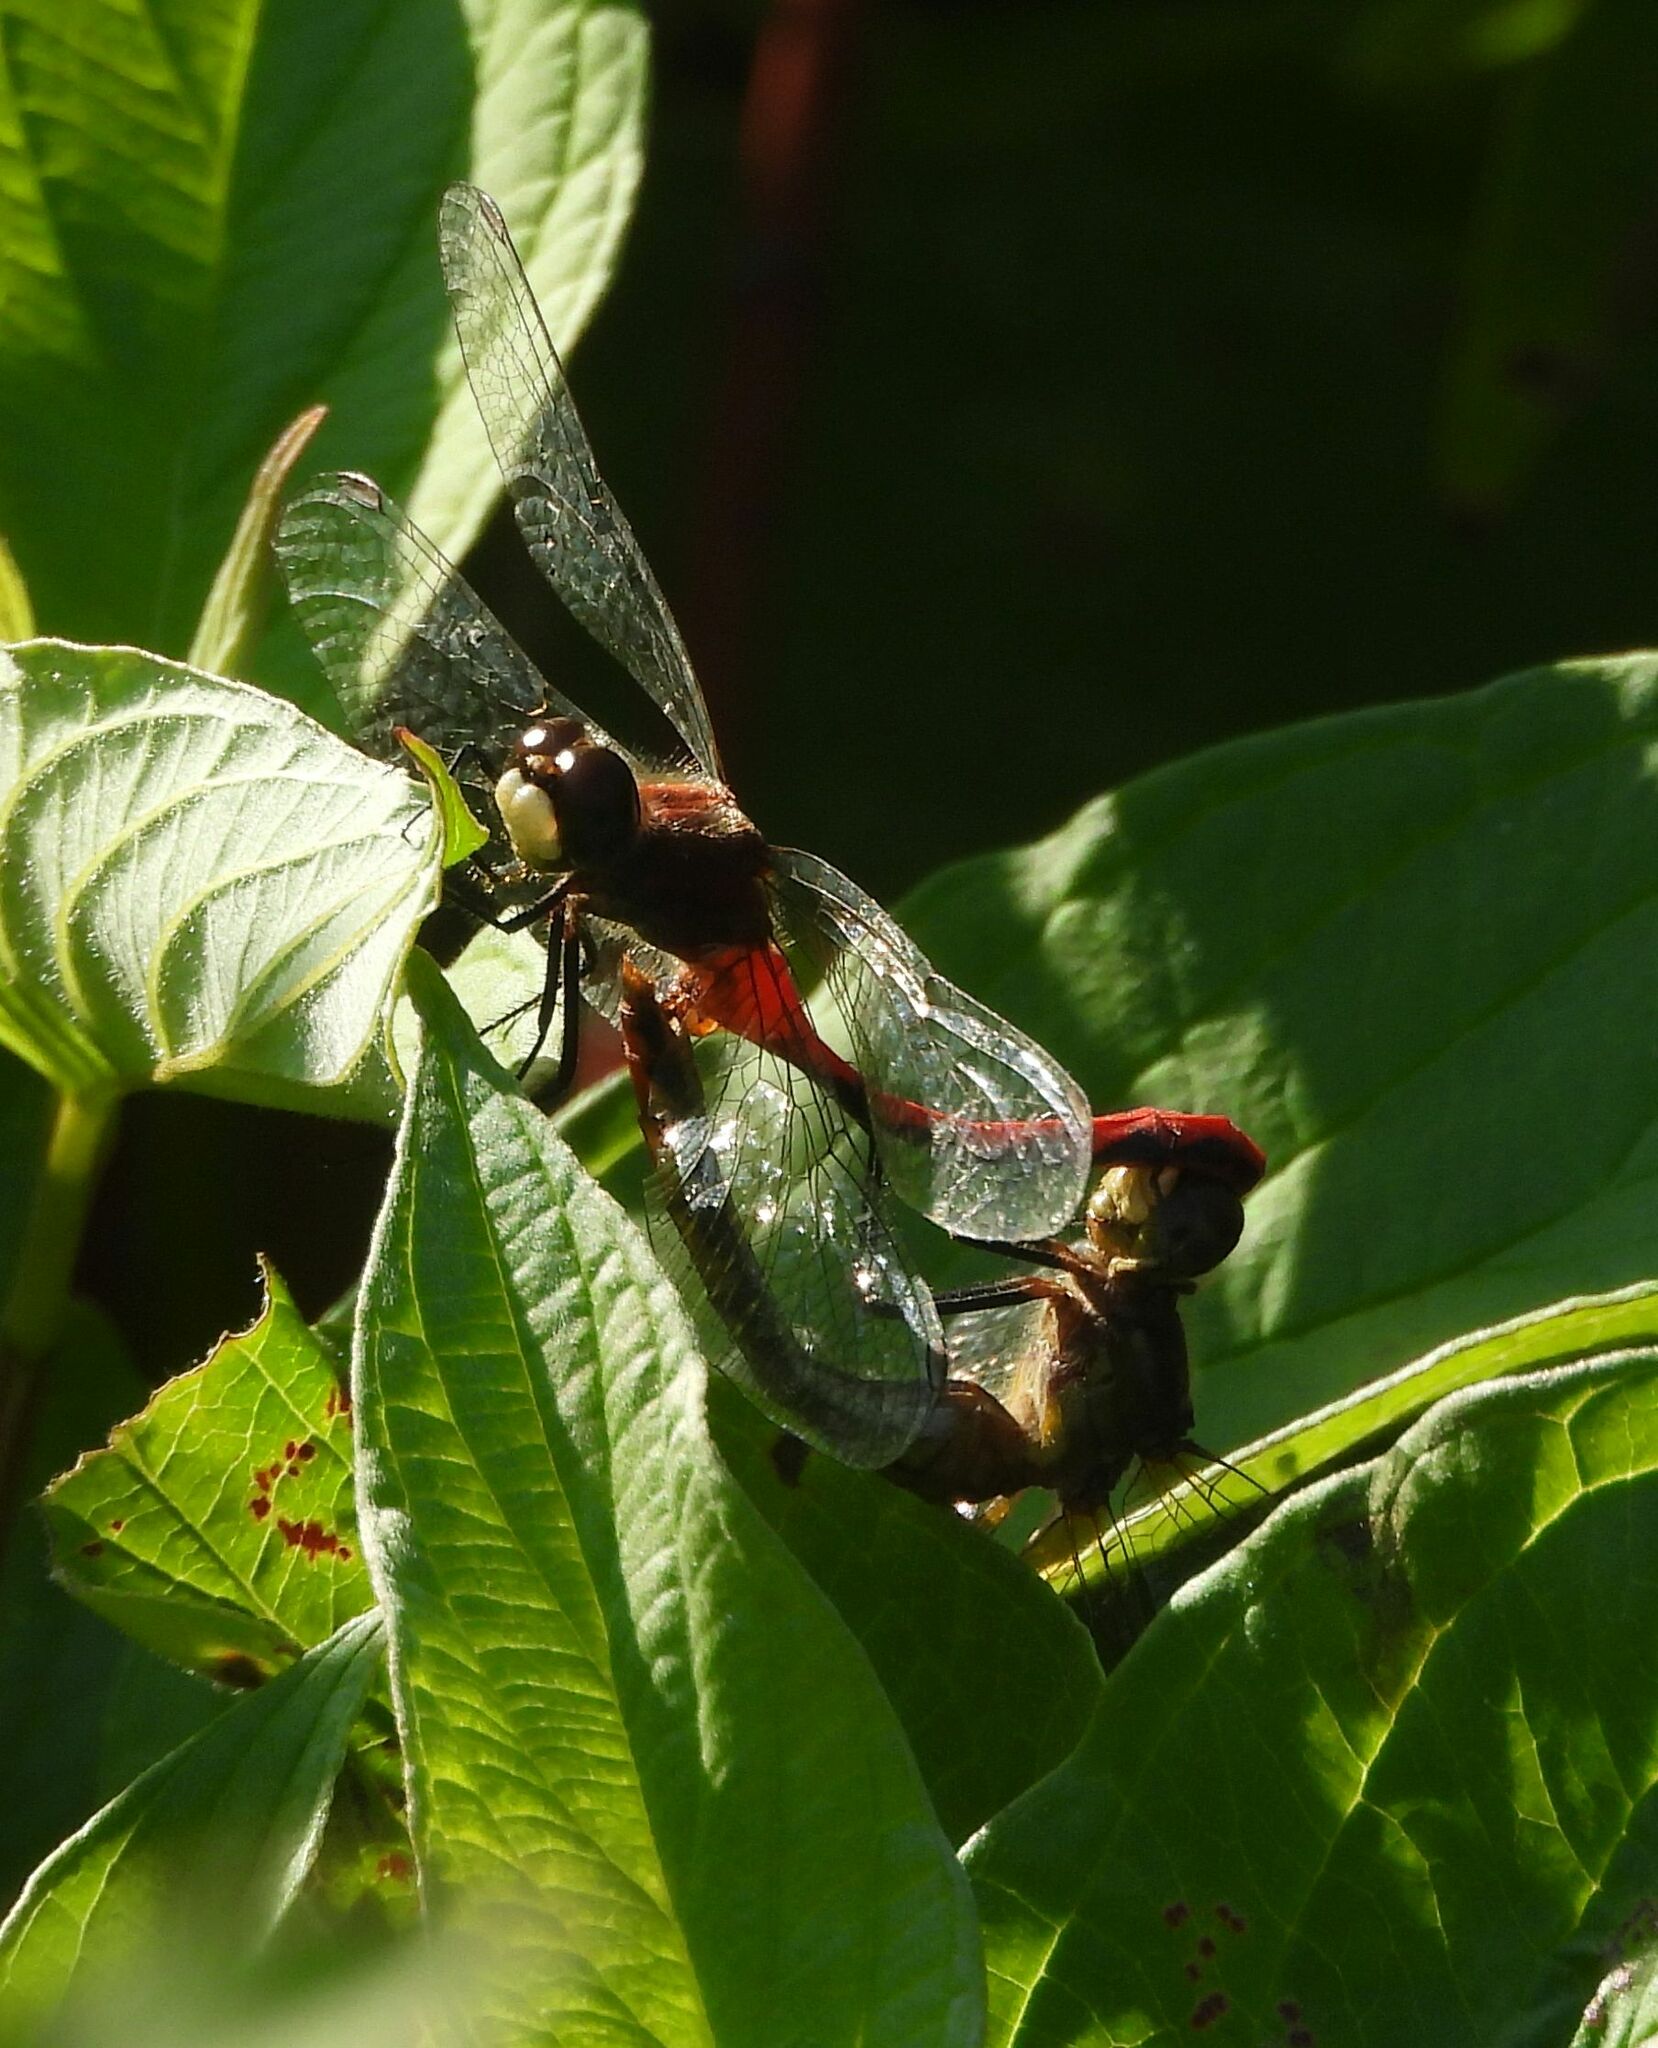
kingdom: Animalia
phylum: Arthropoda
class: Insecta
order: Odonata
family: Libellulidae
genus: Sympetrum
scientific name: Sympetrum obtrusum
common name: White-faced meadowhawk
